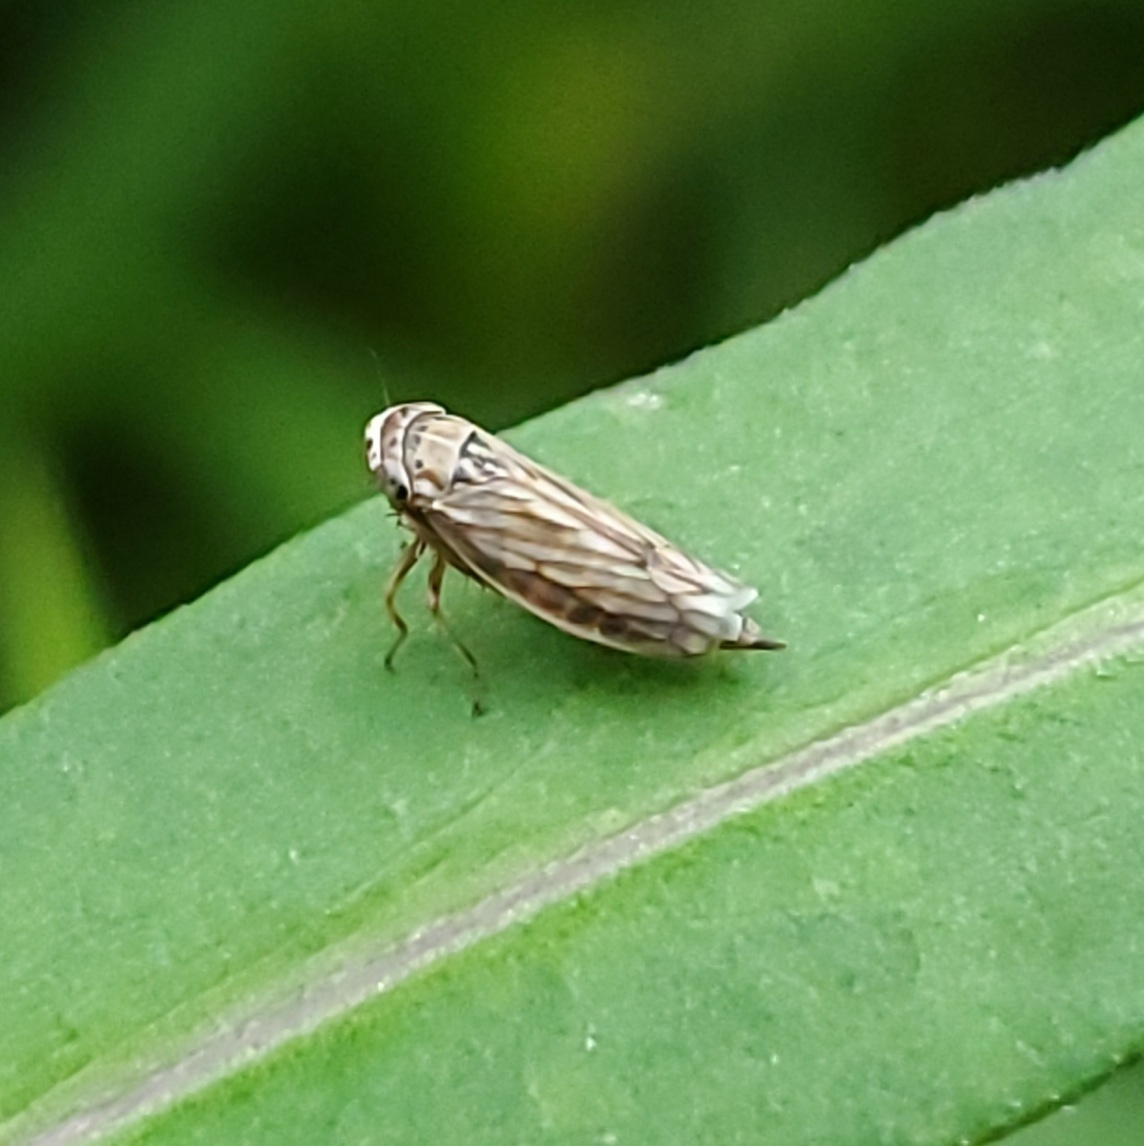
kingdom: Animalia
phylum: Arthropoda
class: Insecta
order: Hemiptera
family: Cicadellidae
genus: Exitianus
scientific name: Exitianus exitiosus
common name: Gray lawn leafhopper
